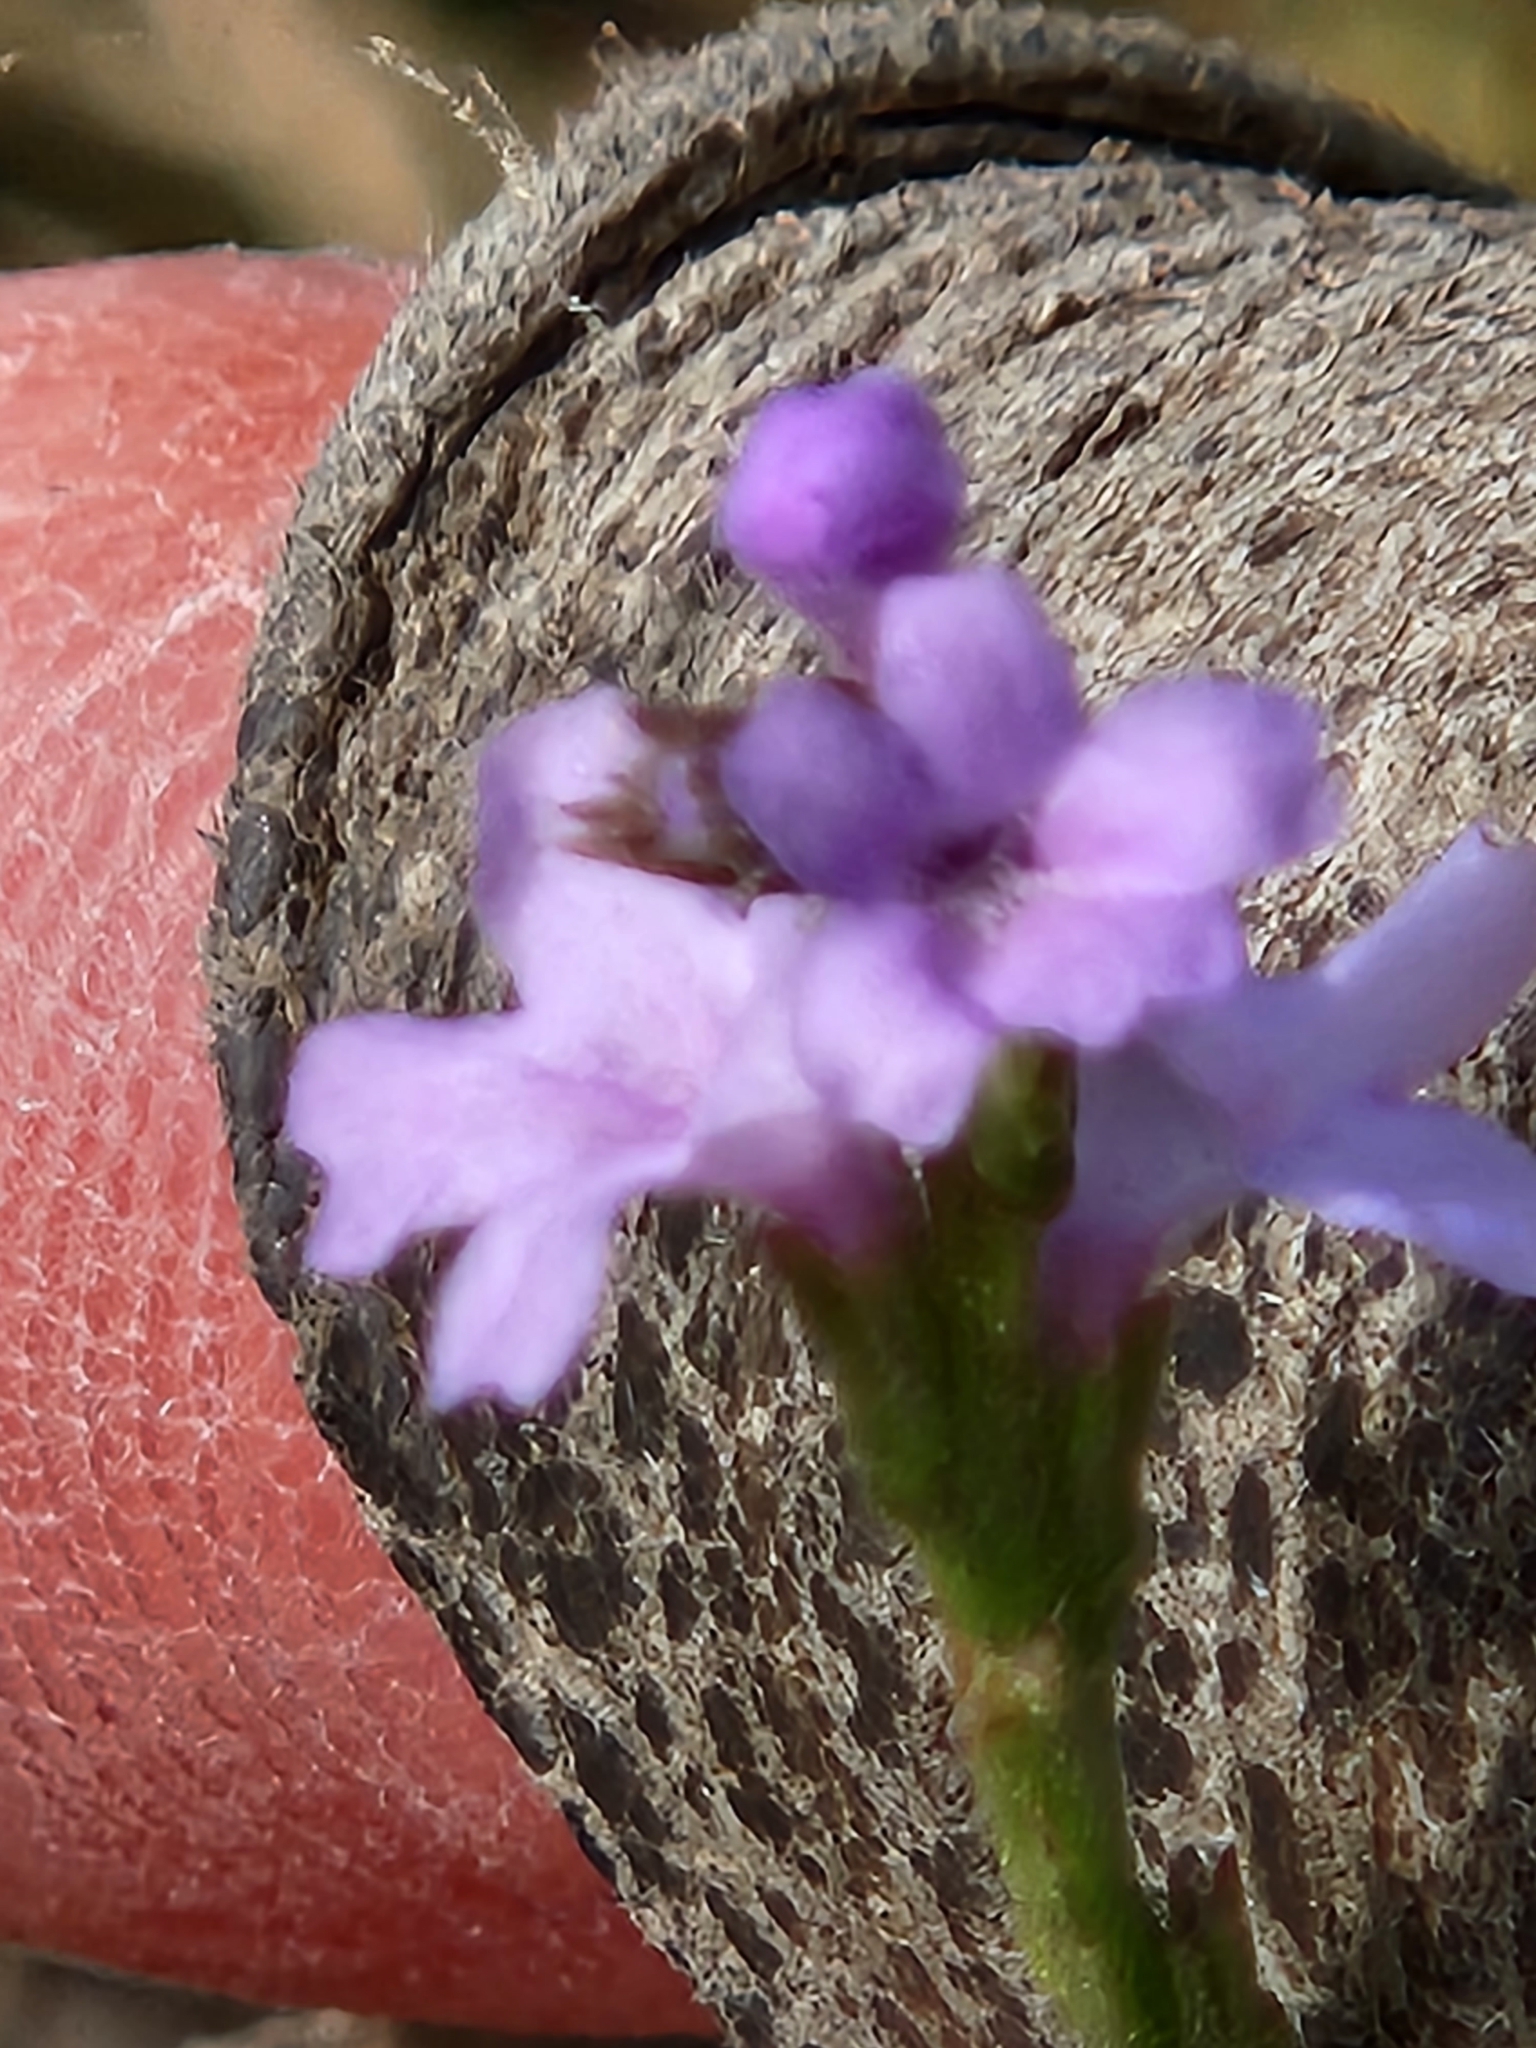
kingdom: Plantae
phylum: Tracheophyta
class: Magnoliopsida
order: Lamiales
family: Verbenaceae
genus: Verbena
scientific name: Verbena xutha
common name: Gulf vervain
